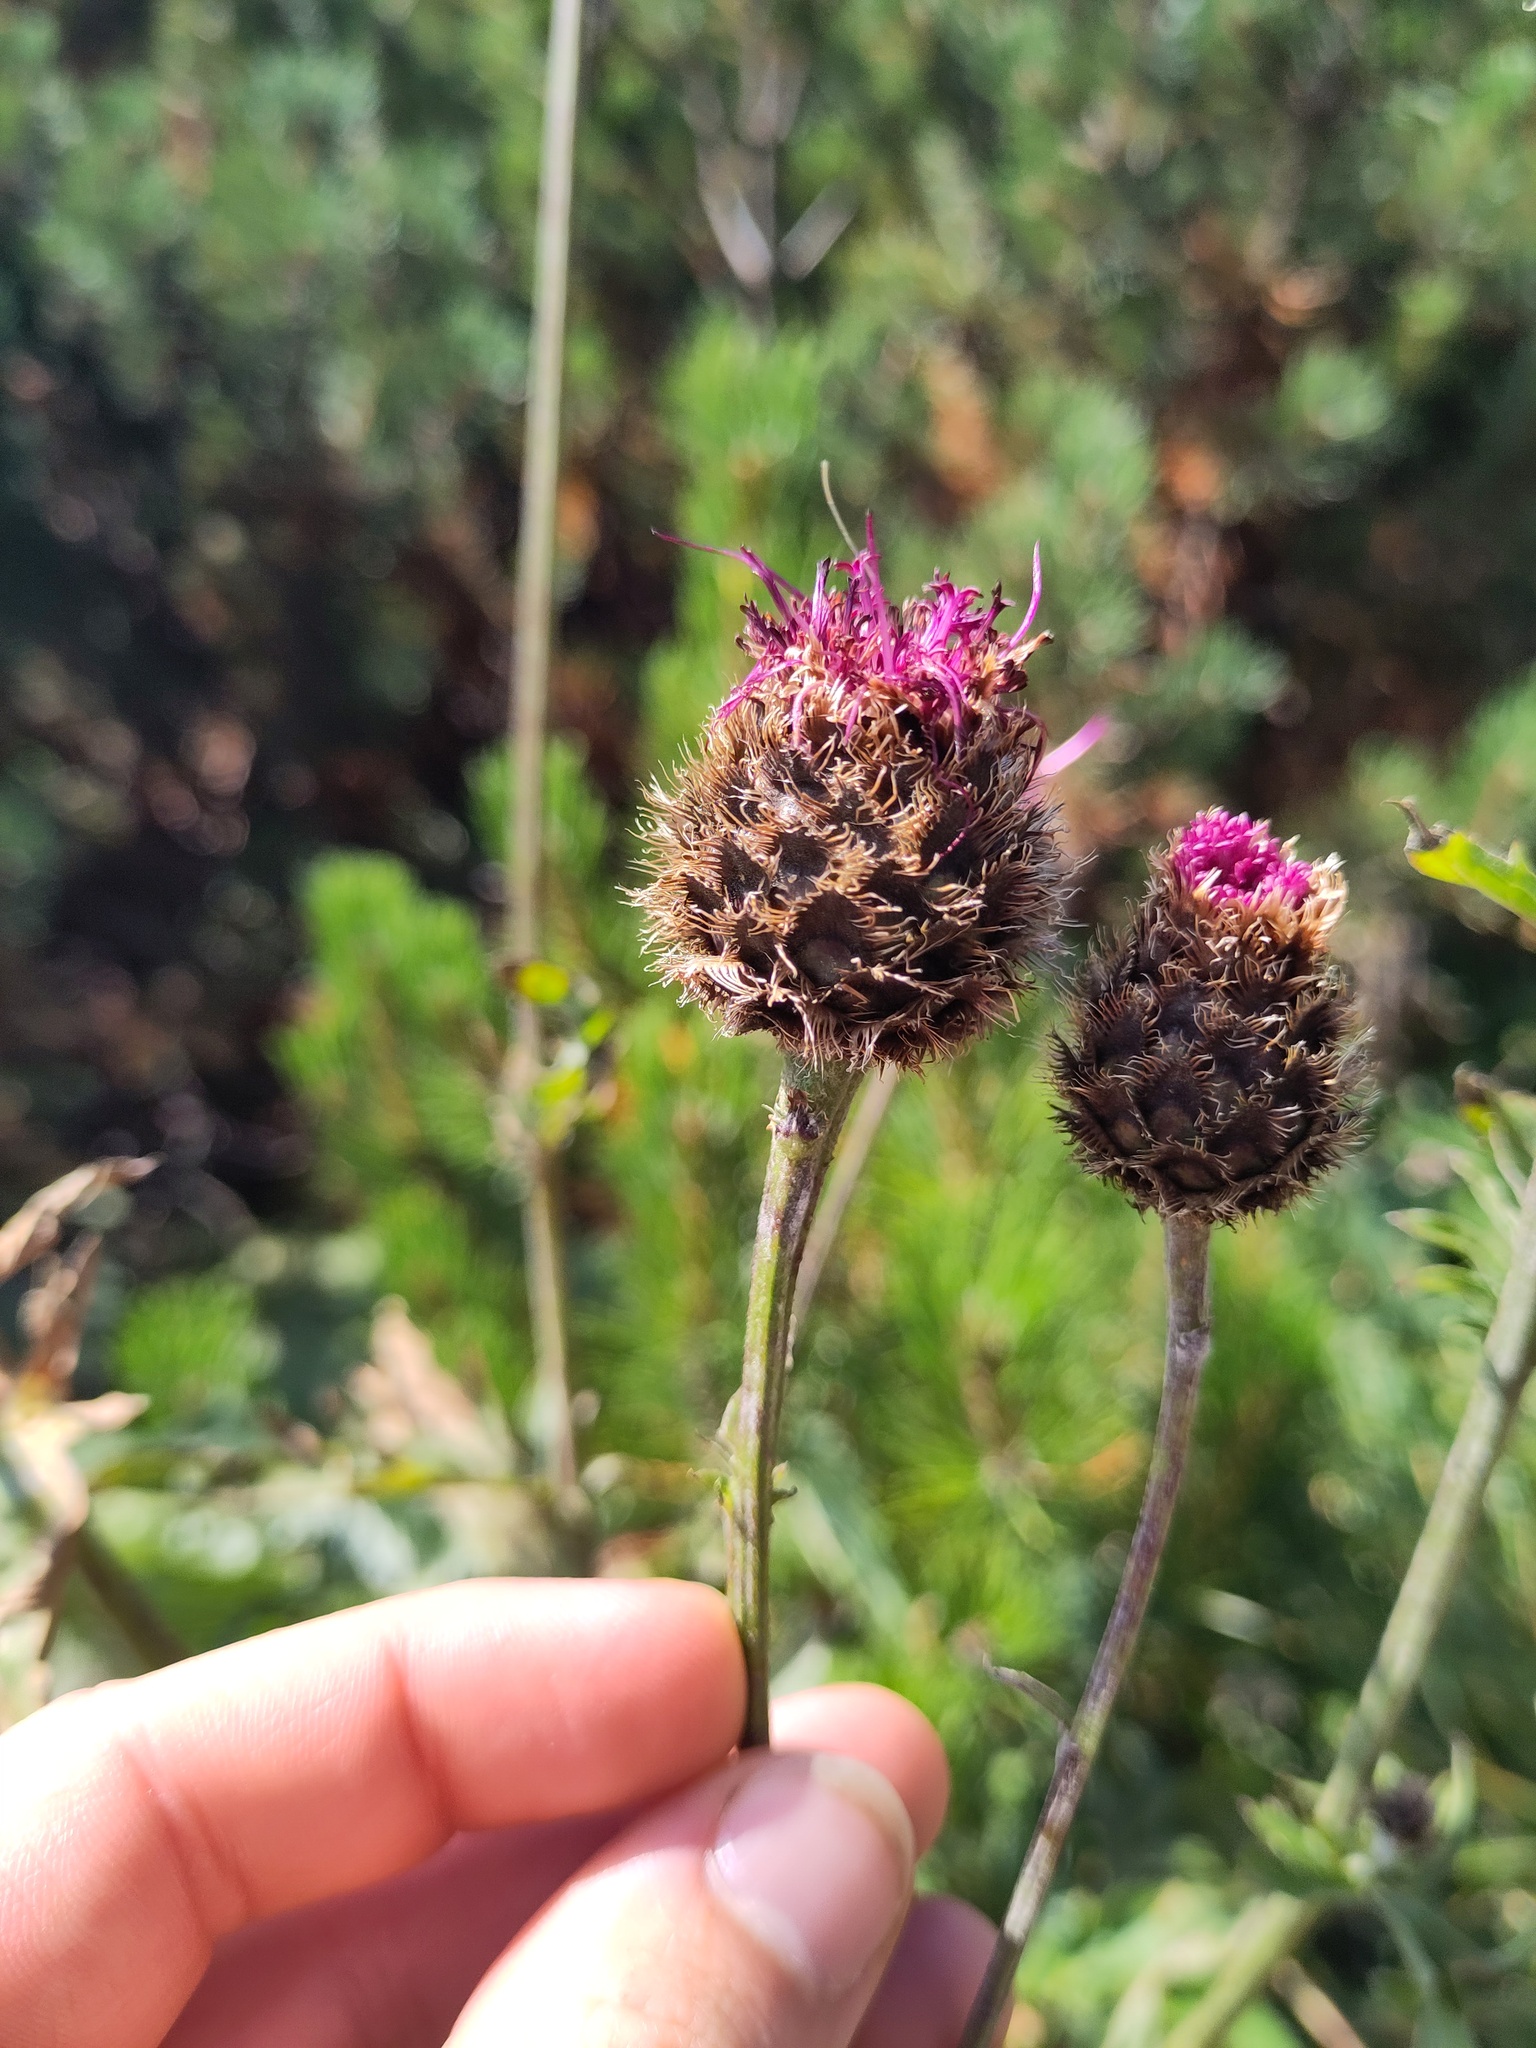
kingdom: Plantae
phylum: Tracheophyta
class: Magnoliopsida
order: Asterales
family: Asteraceae
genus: Centaurea
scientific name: Centaurea scabiosa
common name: Greater knapweed
